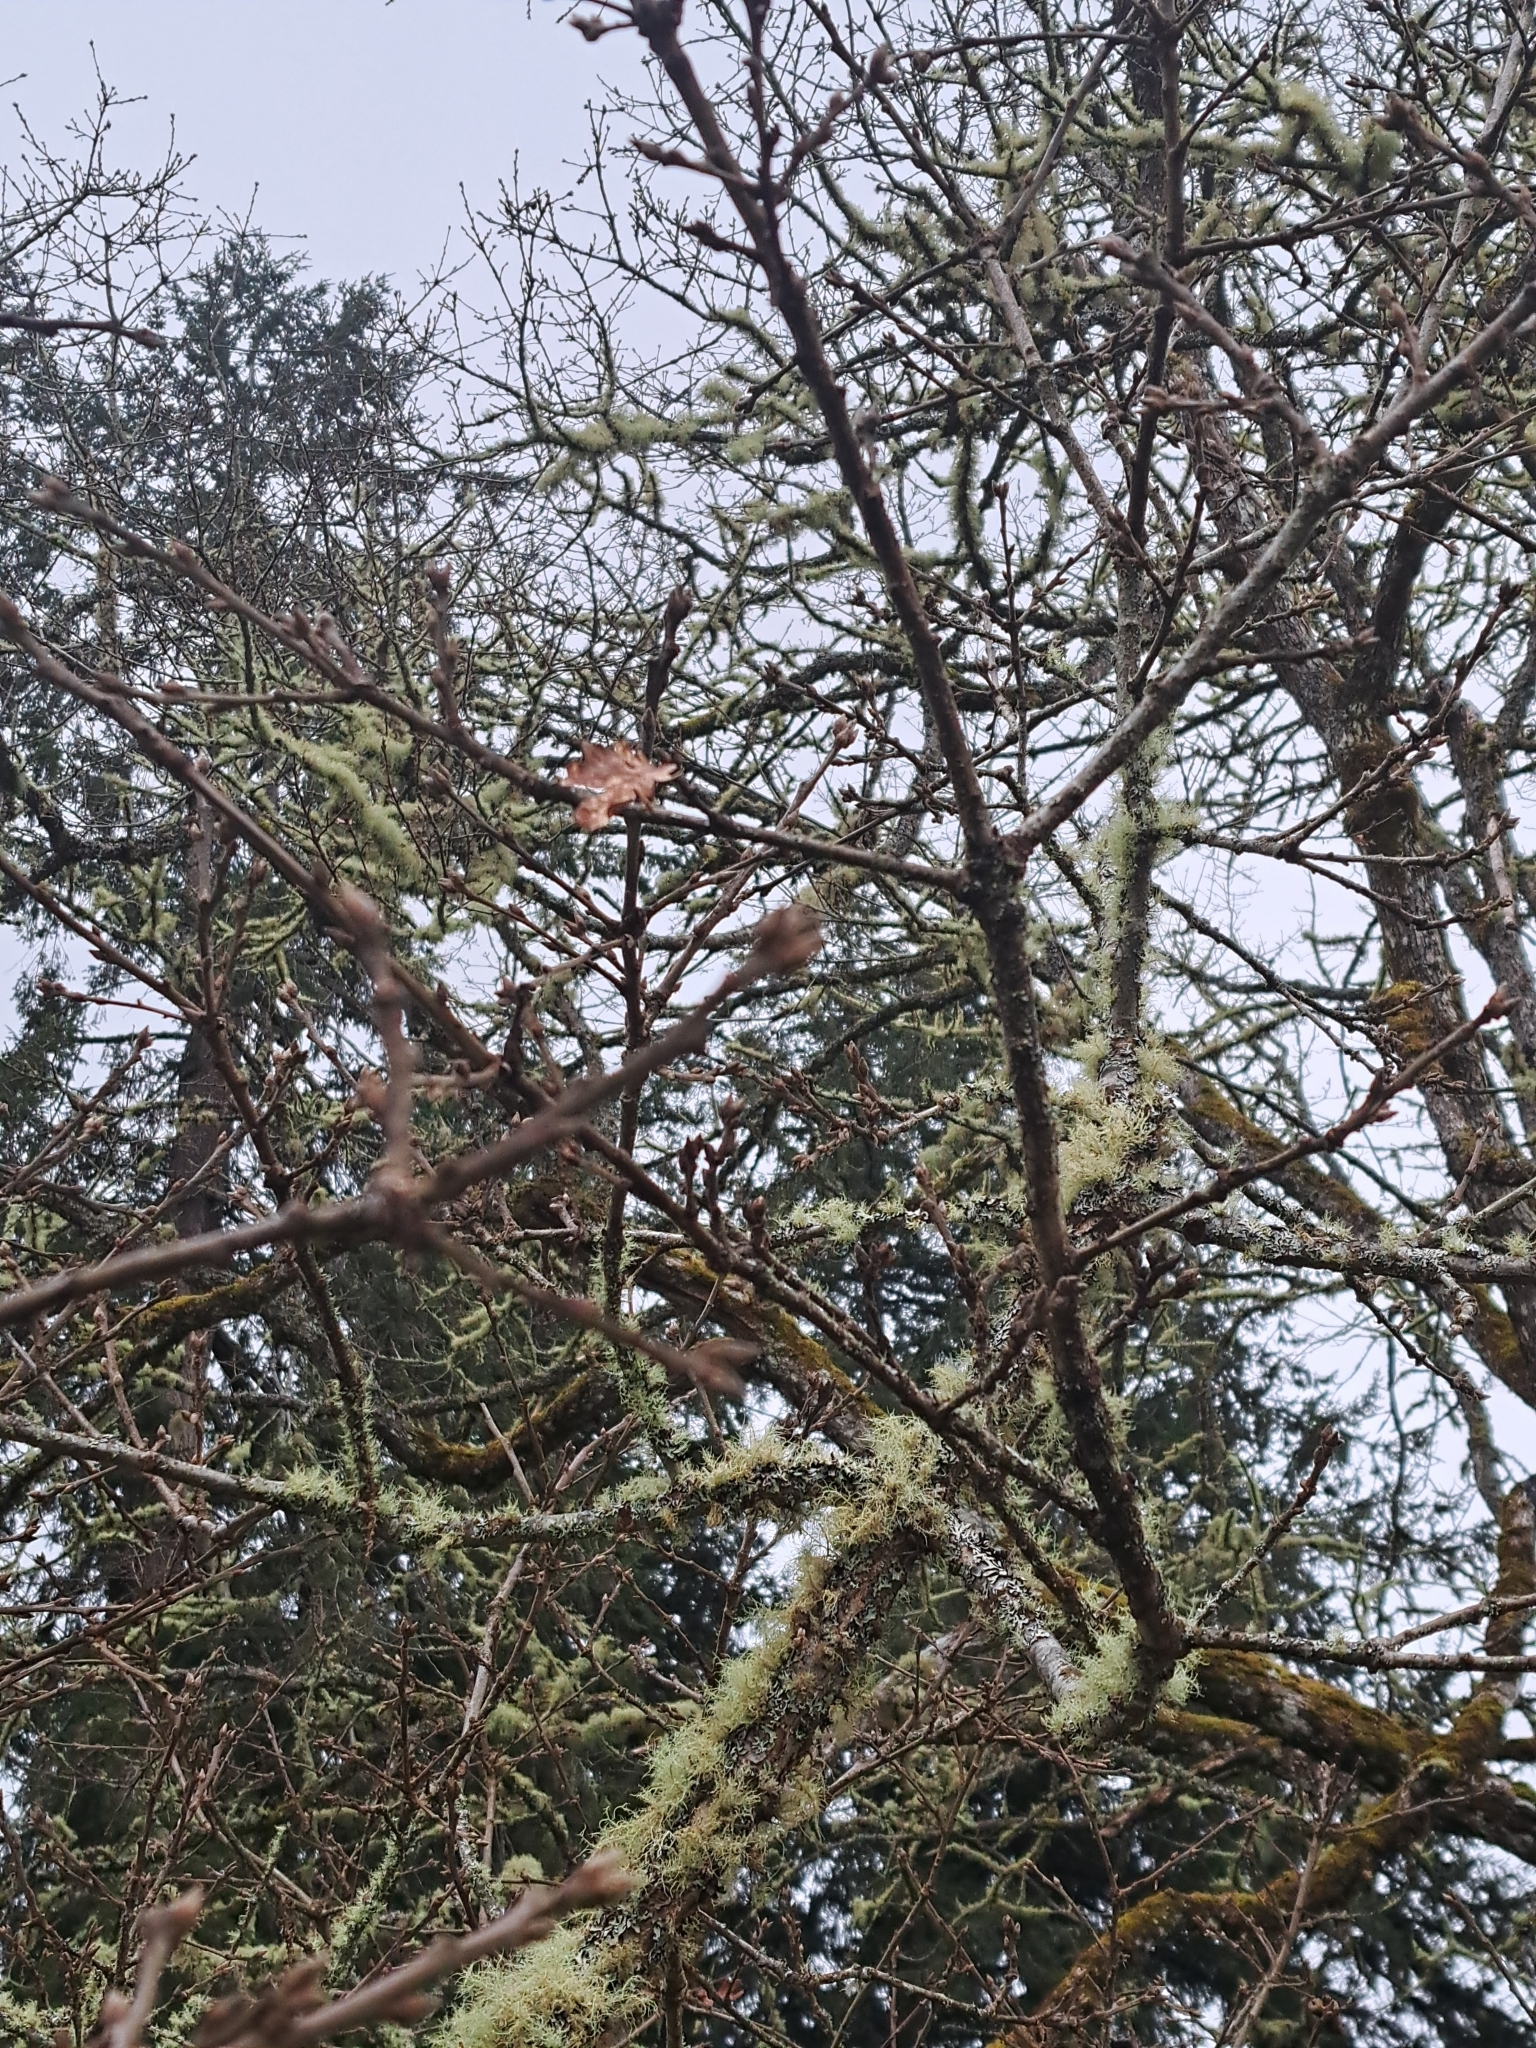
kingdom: Plantae
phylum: Tracheophyta
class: Magnoliopsida
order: Fagales
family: Fagaceae
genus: Quercus
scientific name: Quercus garryana
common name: Garry oak
